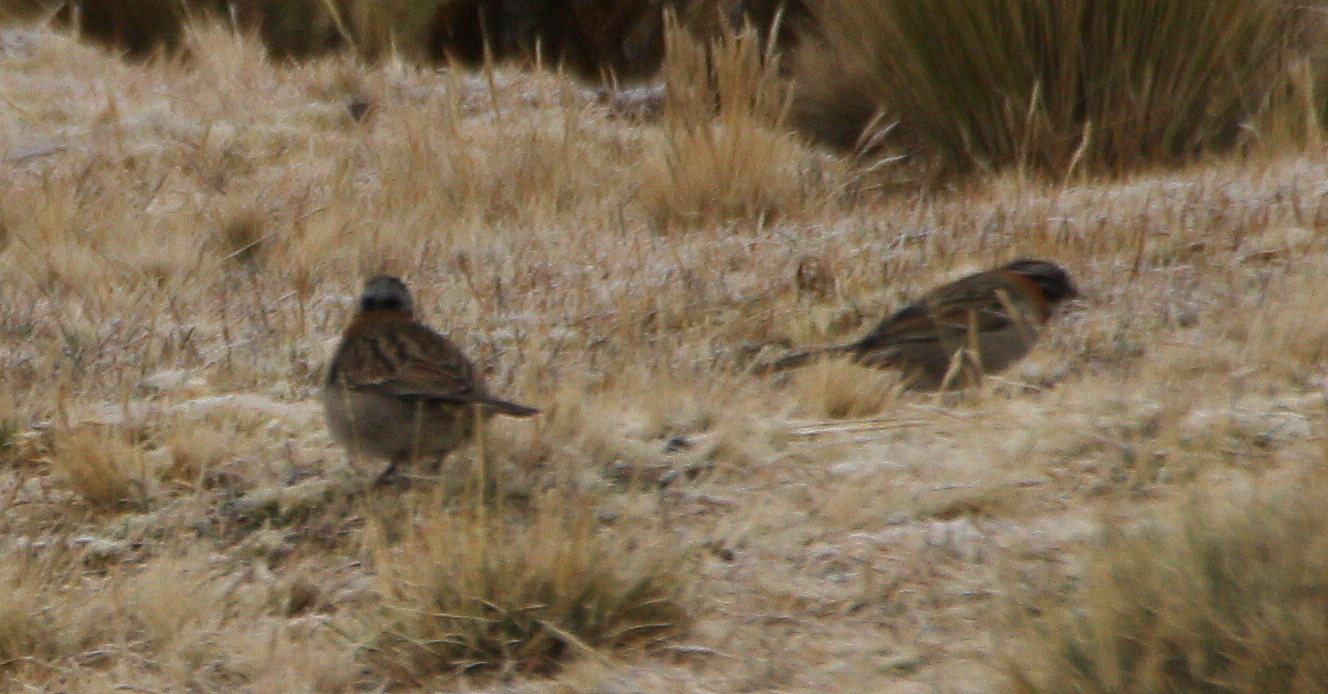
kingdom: Animalia
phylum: Chordata
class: Aves
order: Passeriformes
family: Passerellidae
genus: Zonotrichia
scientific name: Zonotrichia capensis
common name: Rufous-collared sparrow
